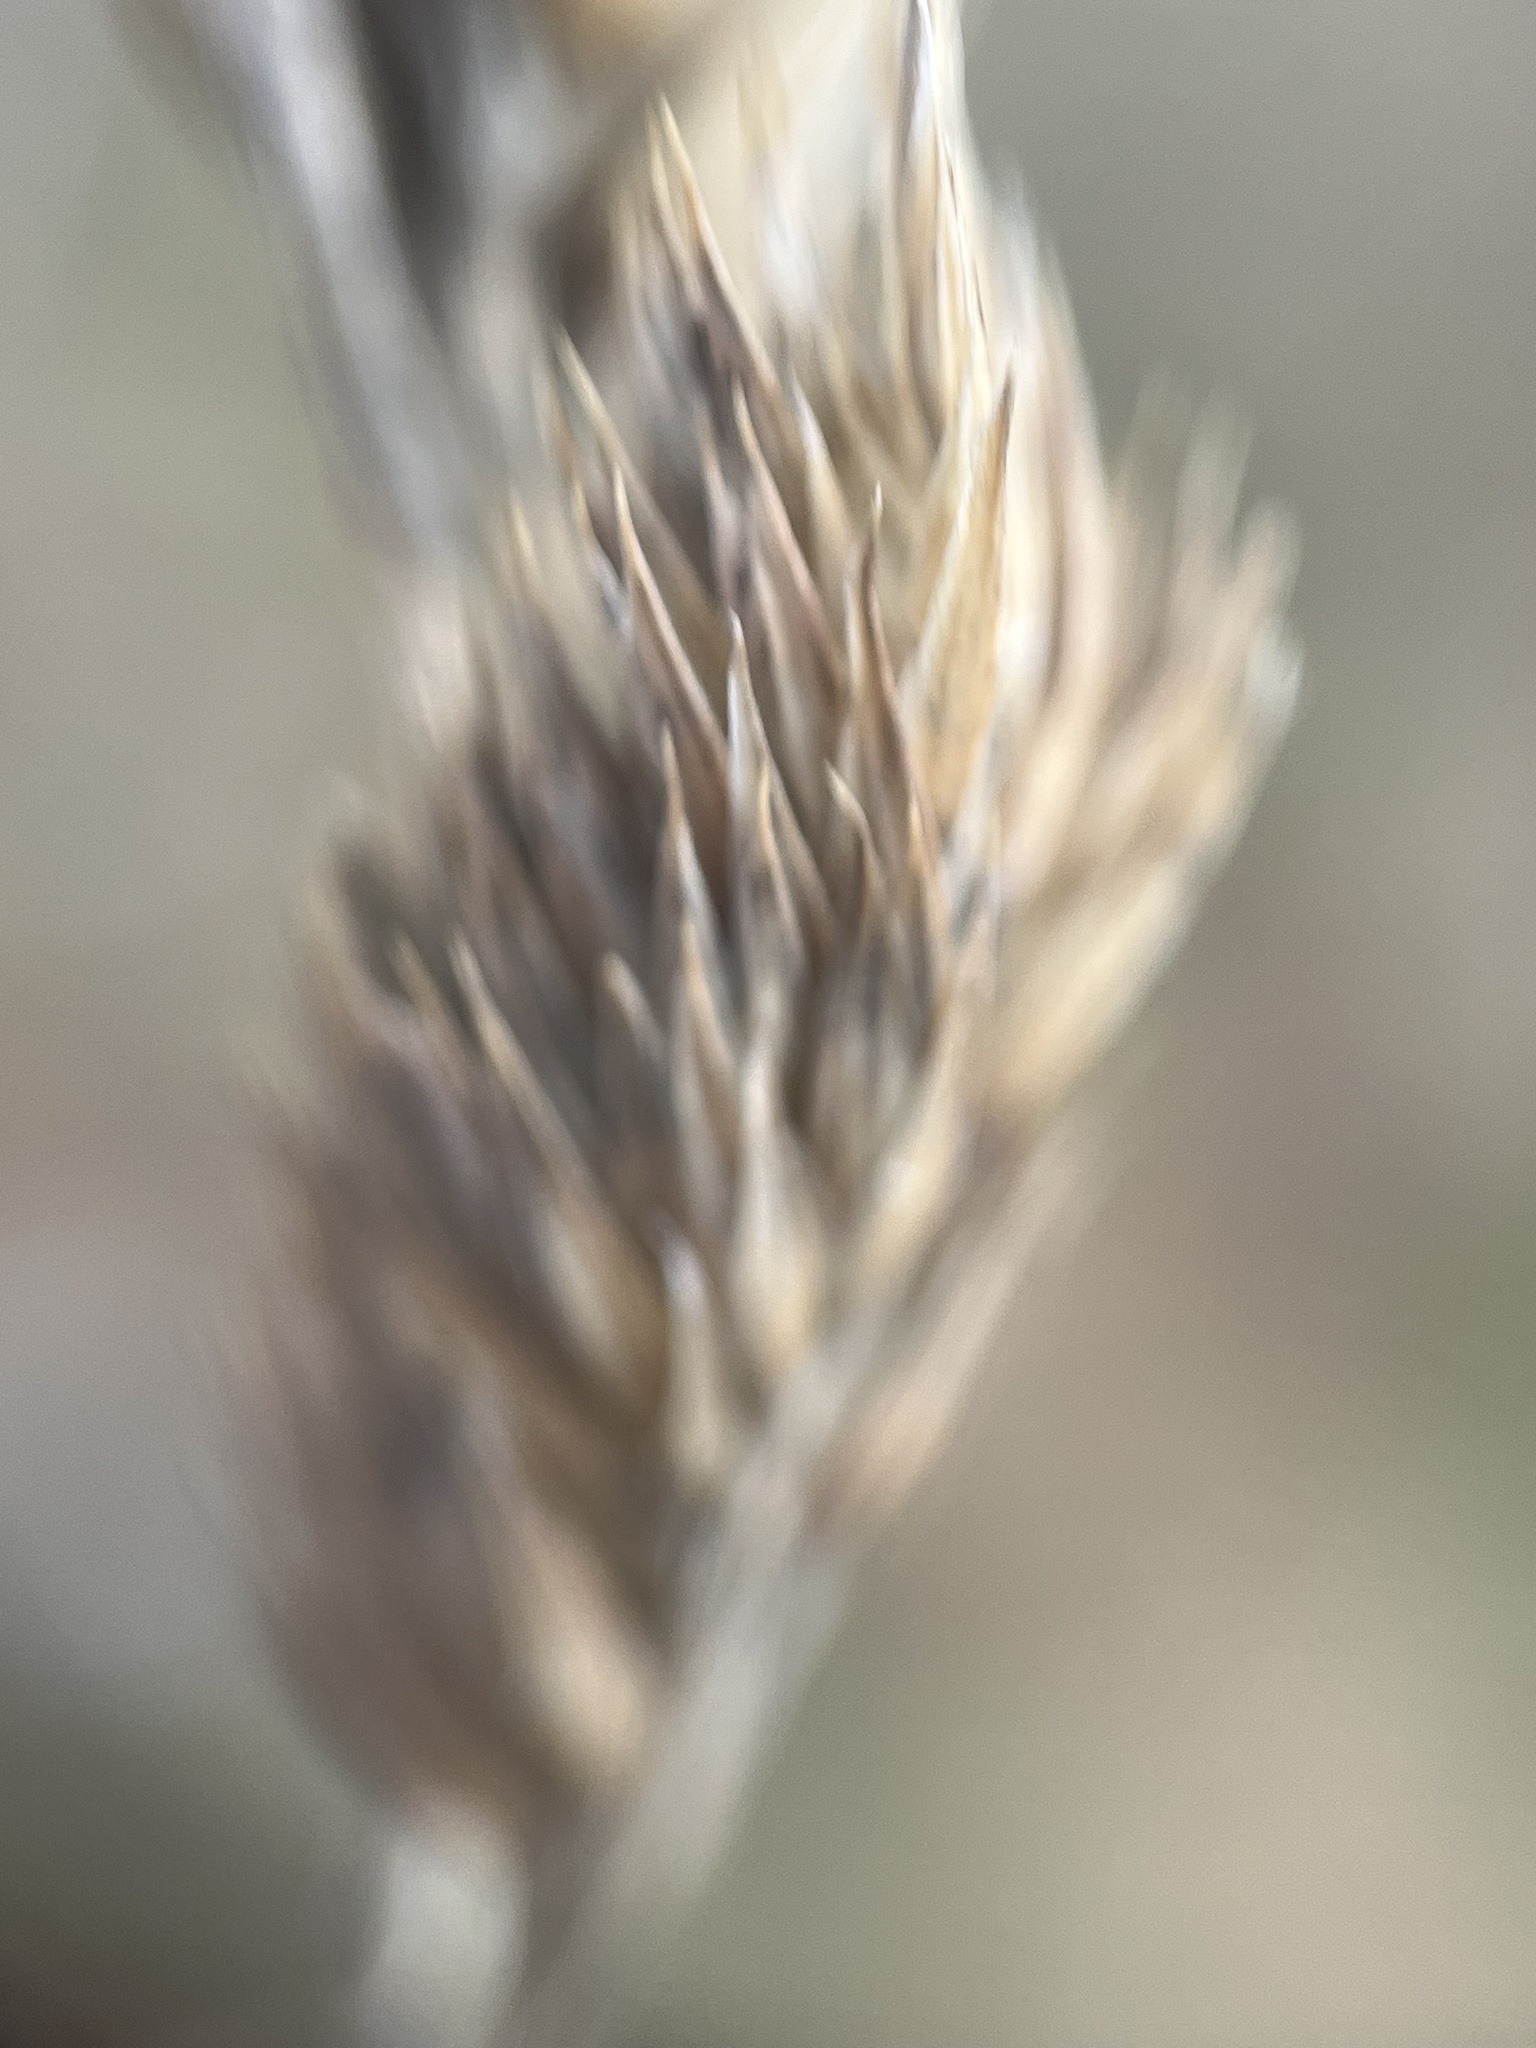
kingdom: Plantae
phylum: Tracheophyta
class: Liliopsida
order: Poales
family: Poaceae
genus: Dactylis
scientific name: Dactylis glomerata
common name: Orchardgrass
